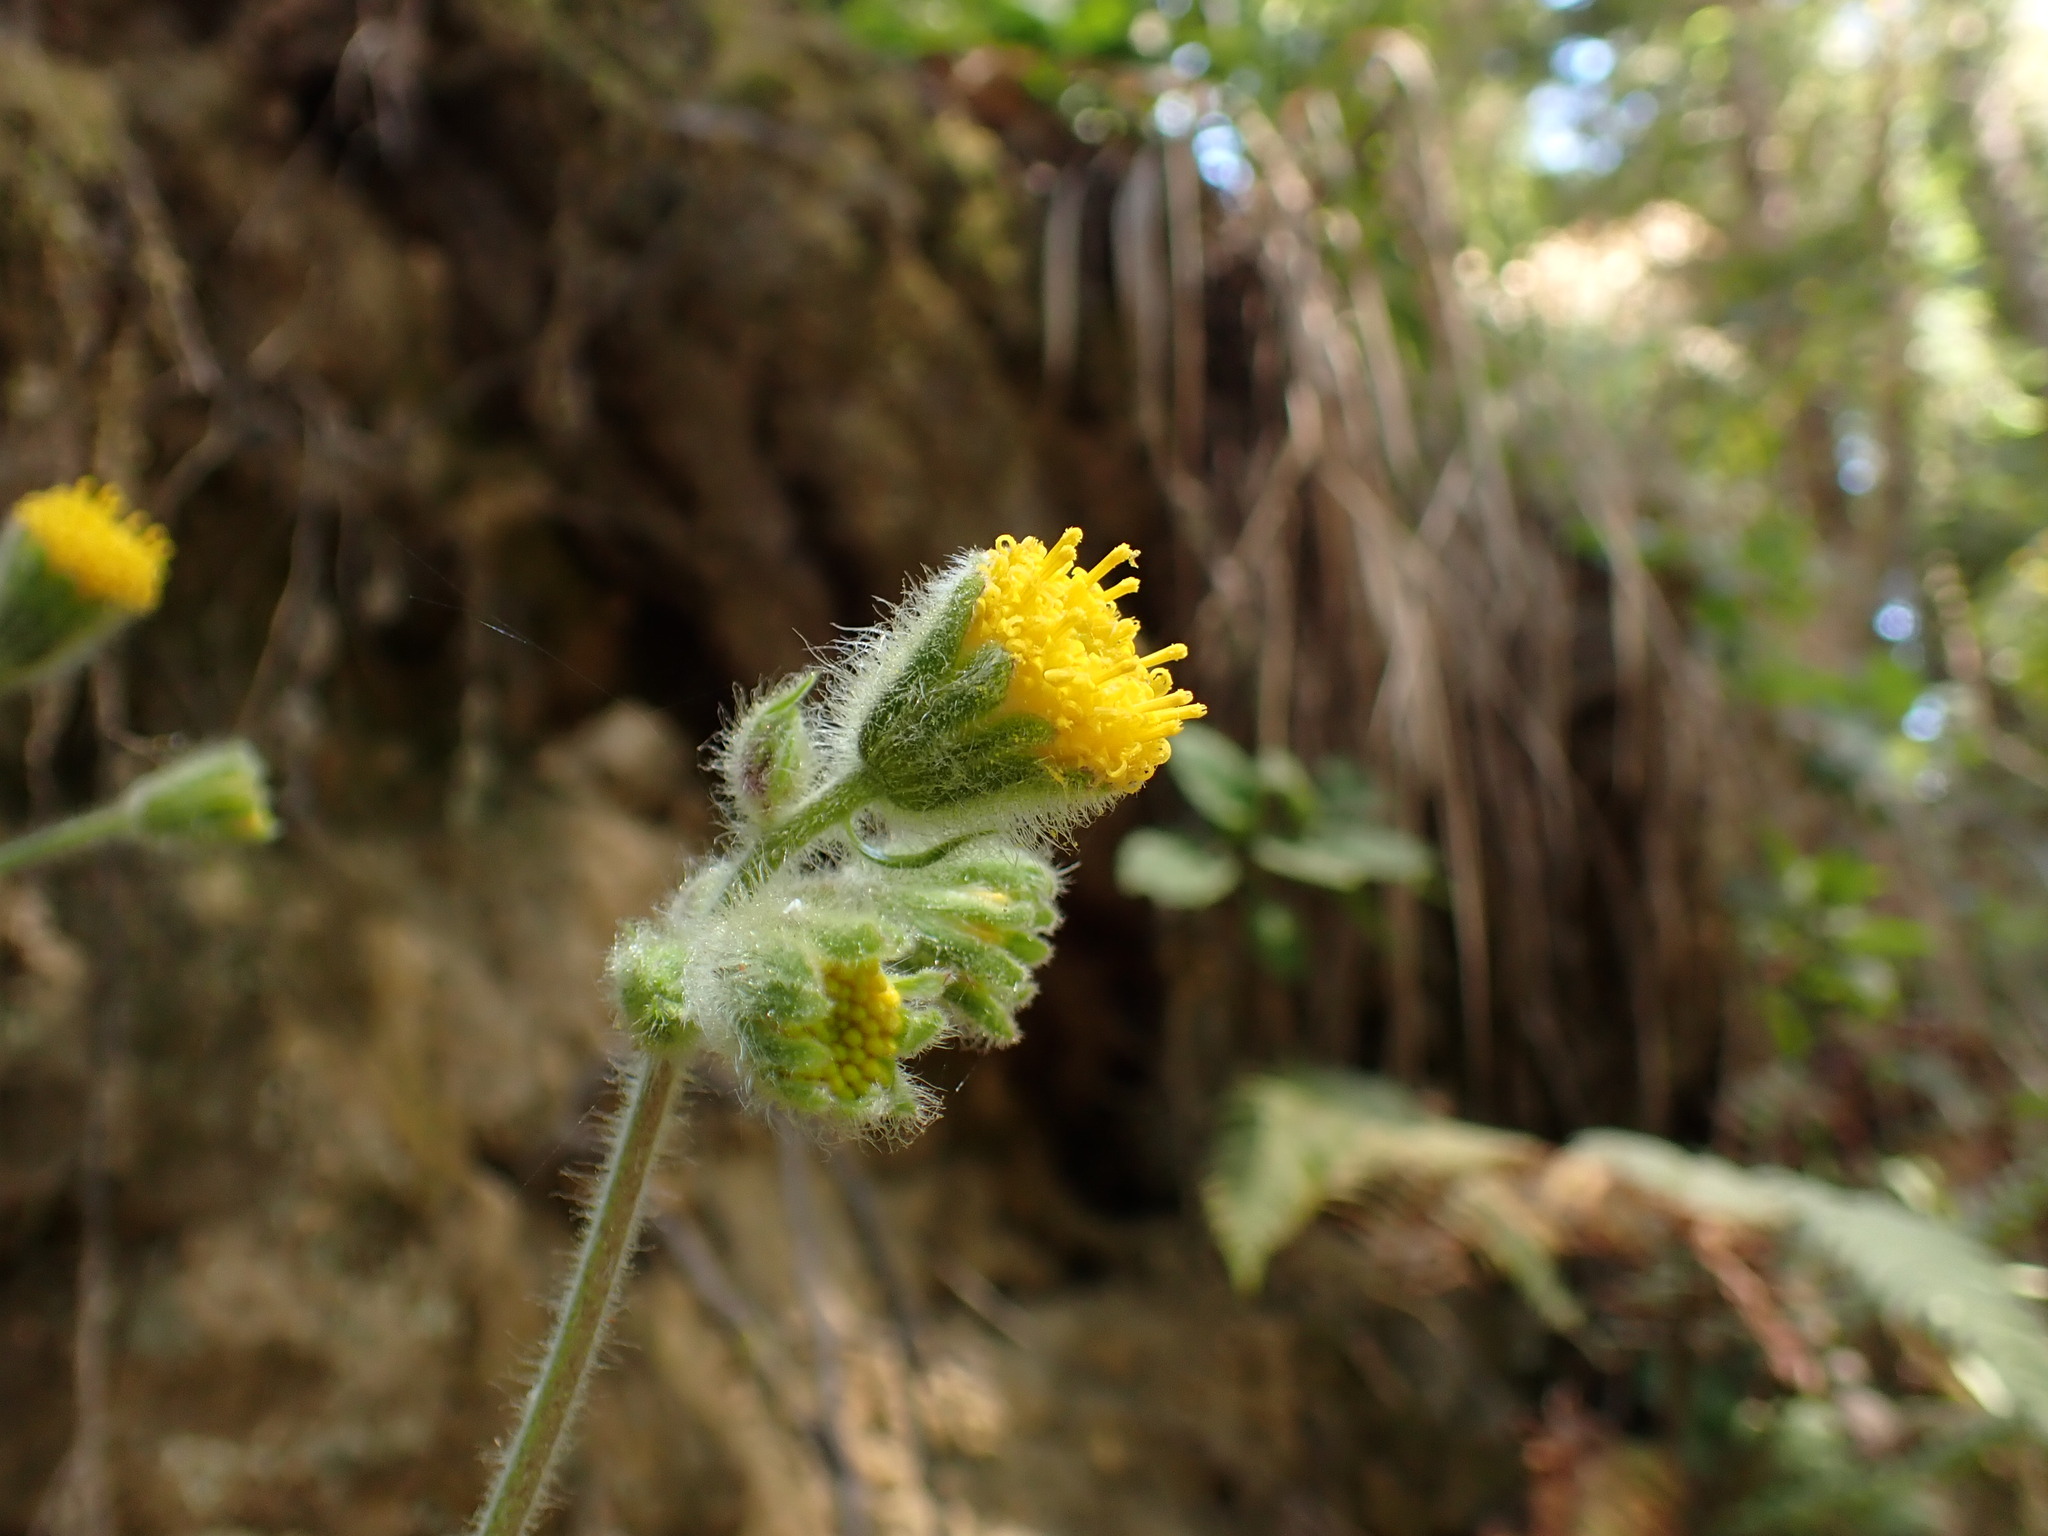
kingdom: Plantae
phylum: Tracheophyta
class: Magnoliopsida
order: Asterales
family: Asteraceae
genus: Arnica
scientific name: Arnica discoidea
